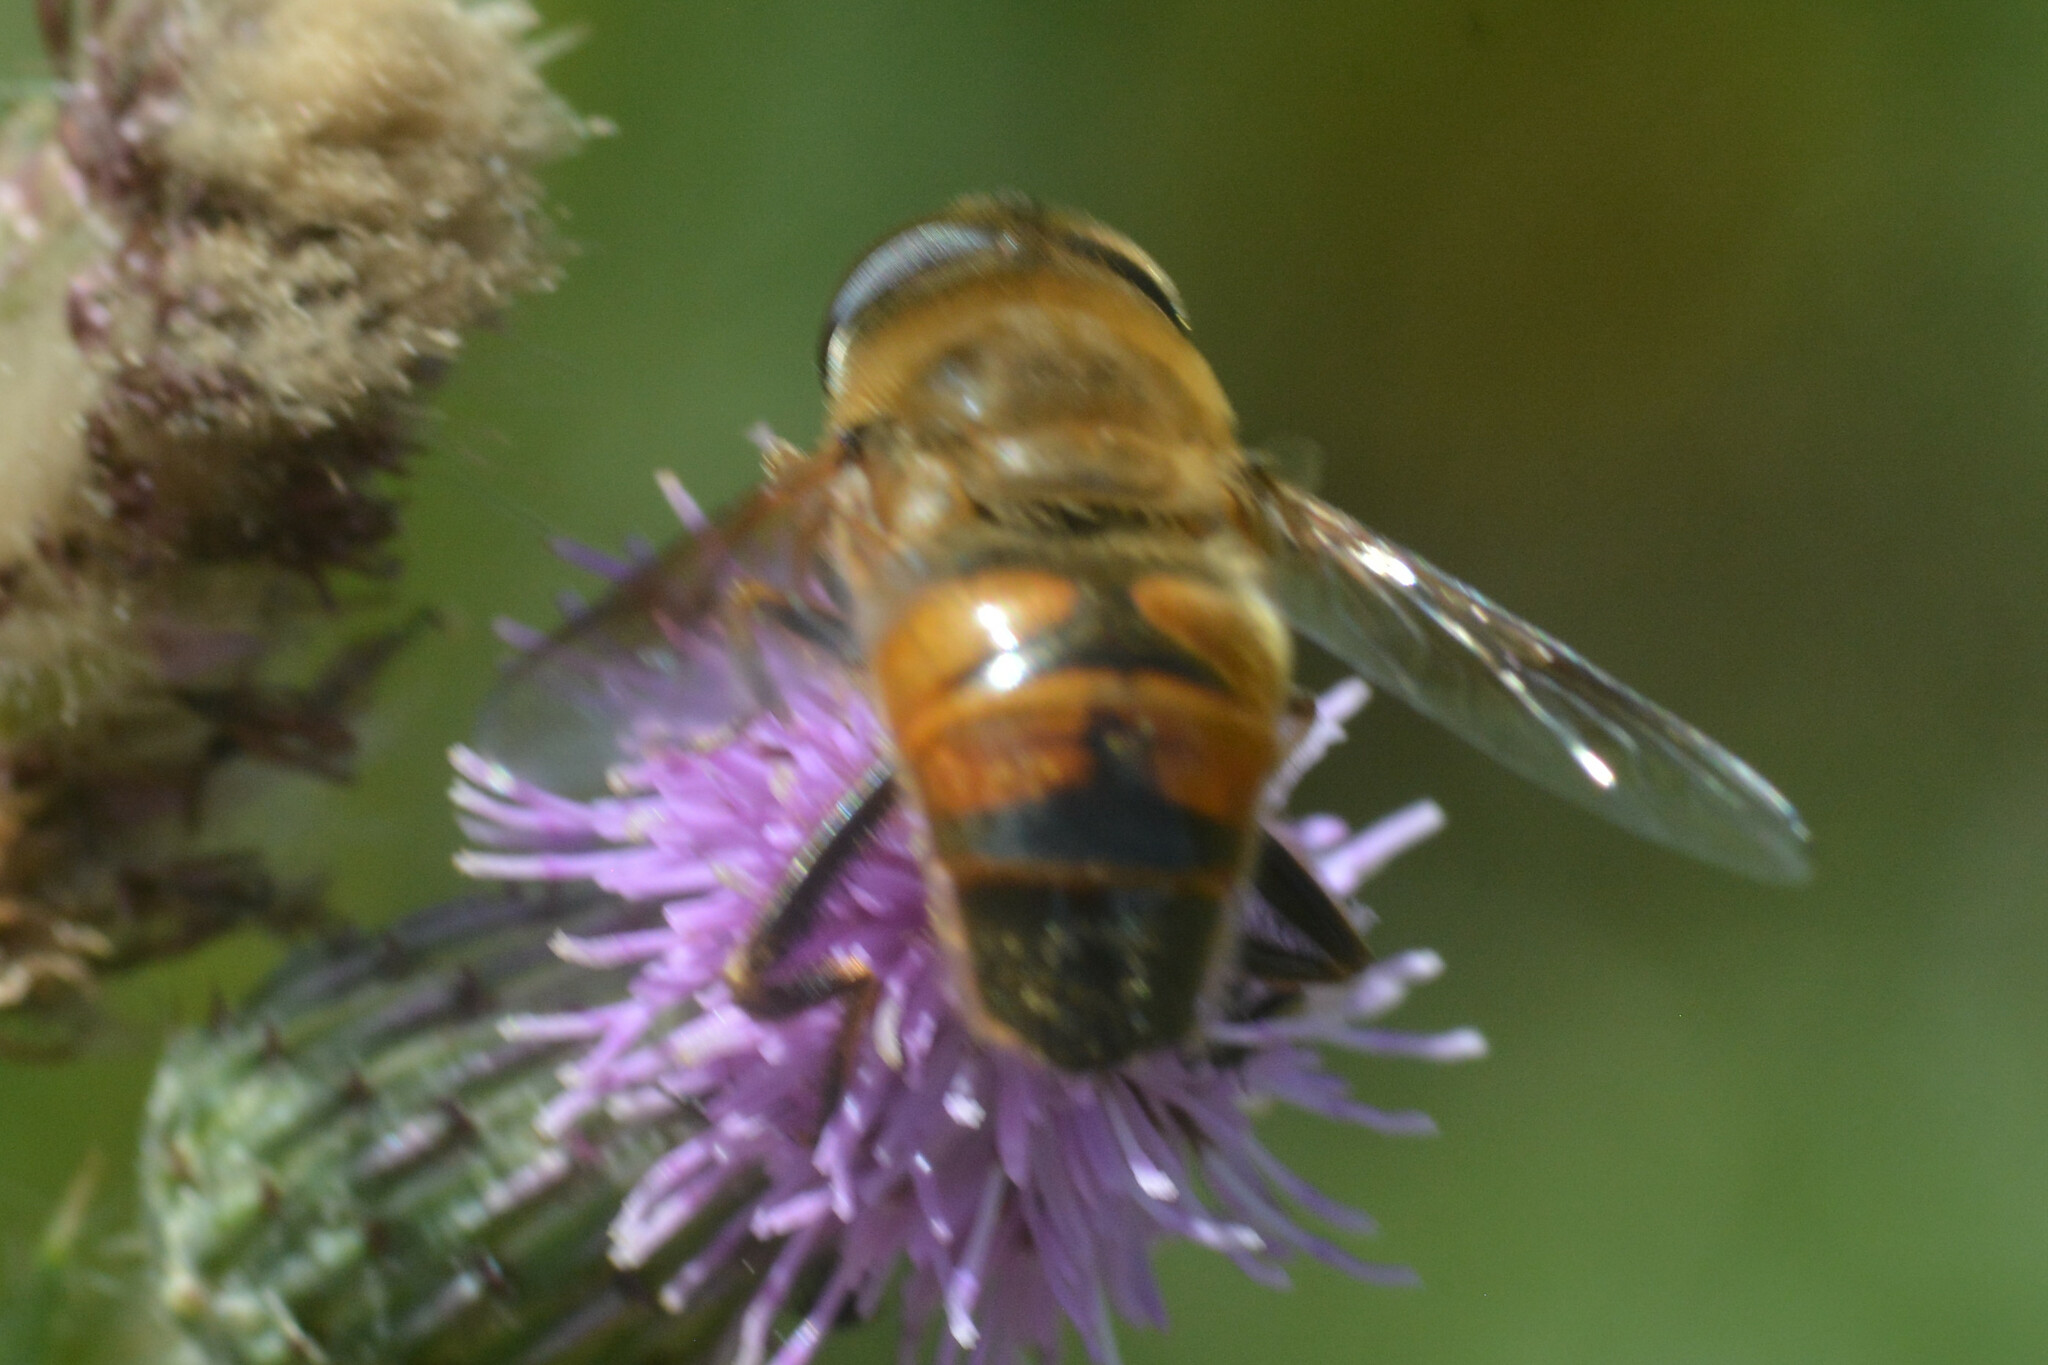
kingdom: Animalia
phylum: Arthropoda
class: Insecta
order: Diptera
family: Syrphidae
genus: Eristalis
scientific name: Eristalis tenax
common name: Drone fly
